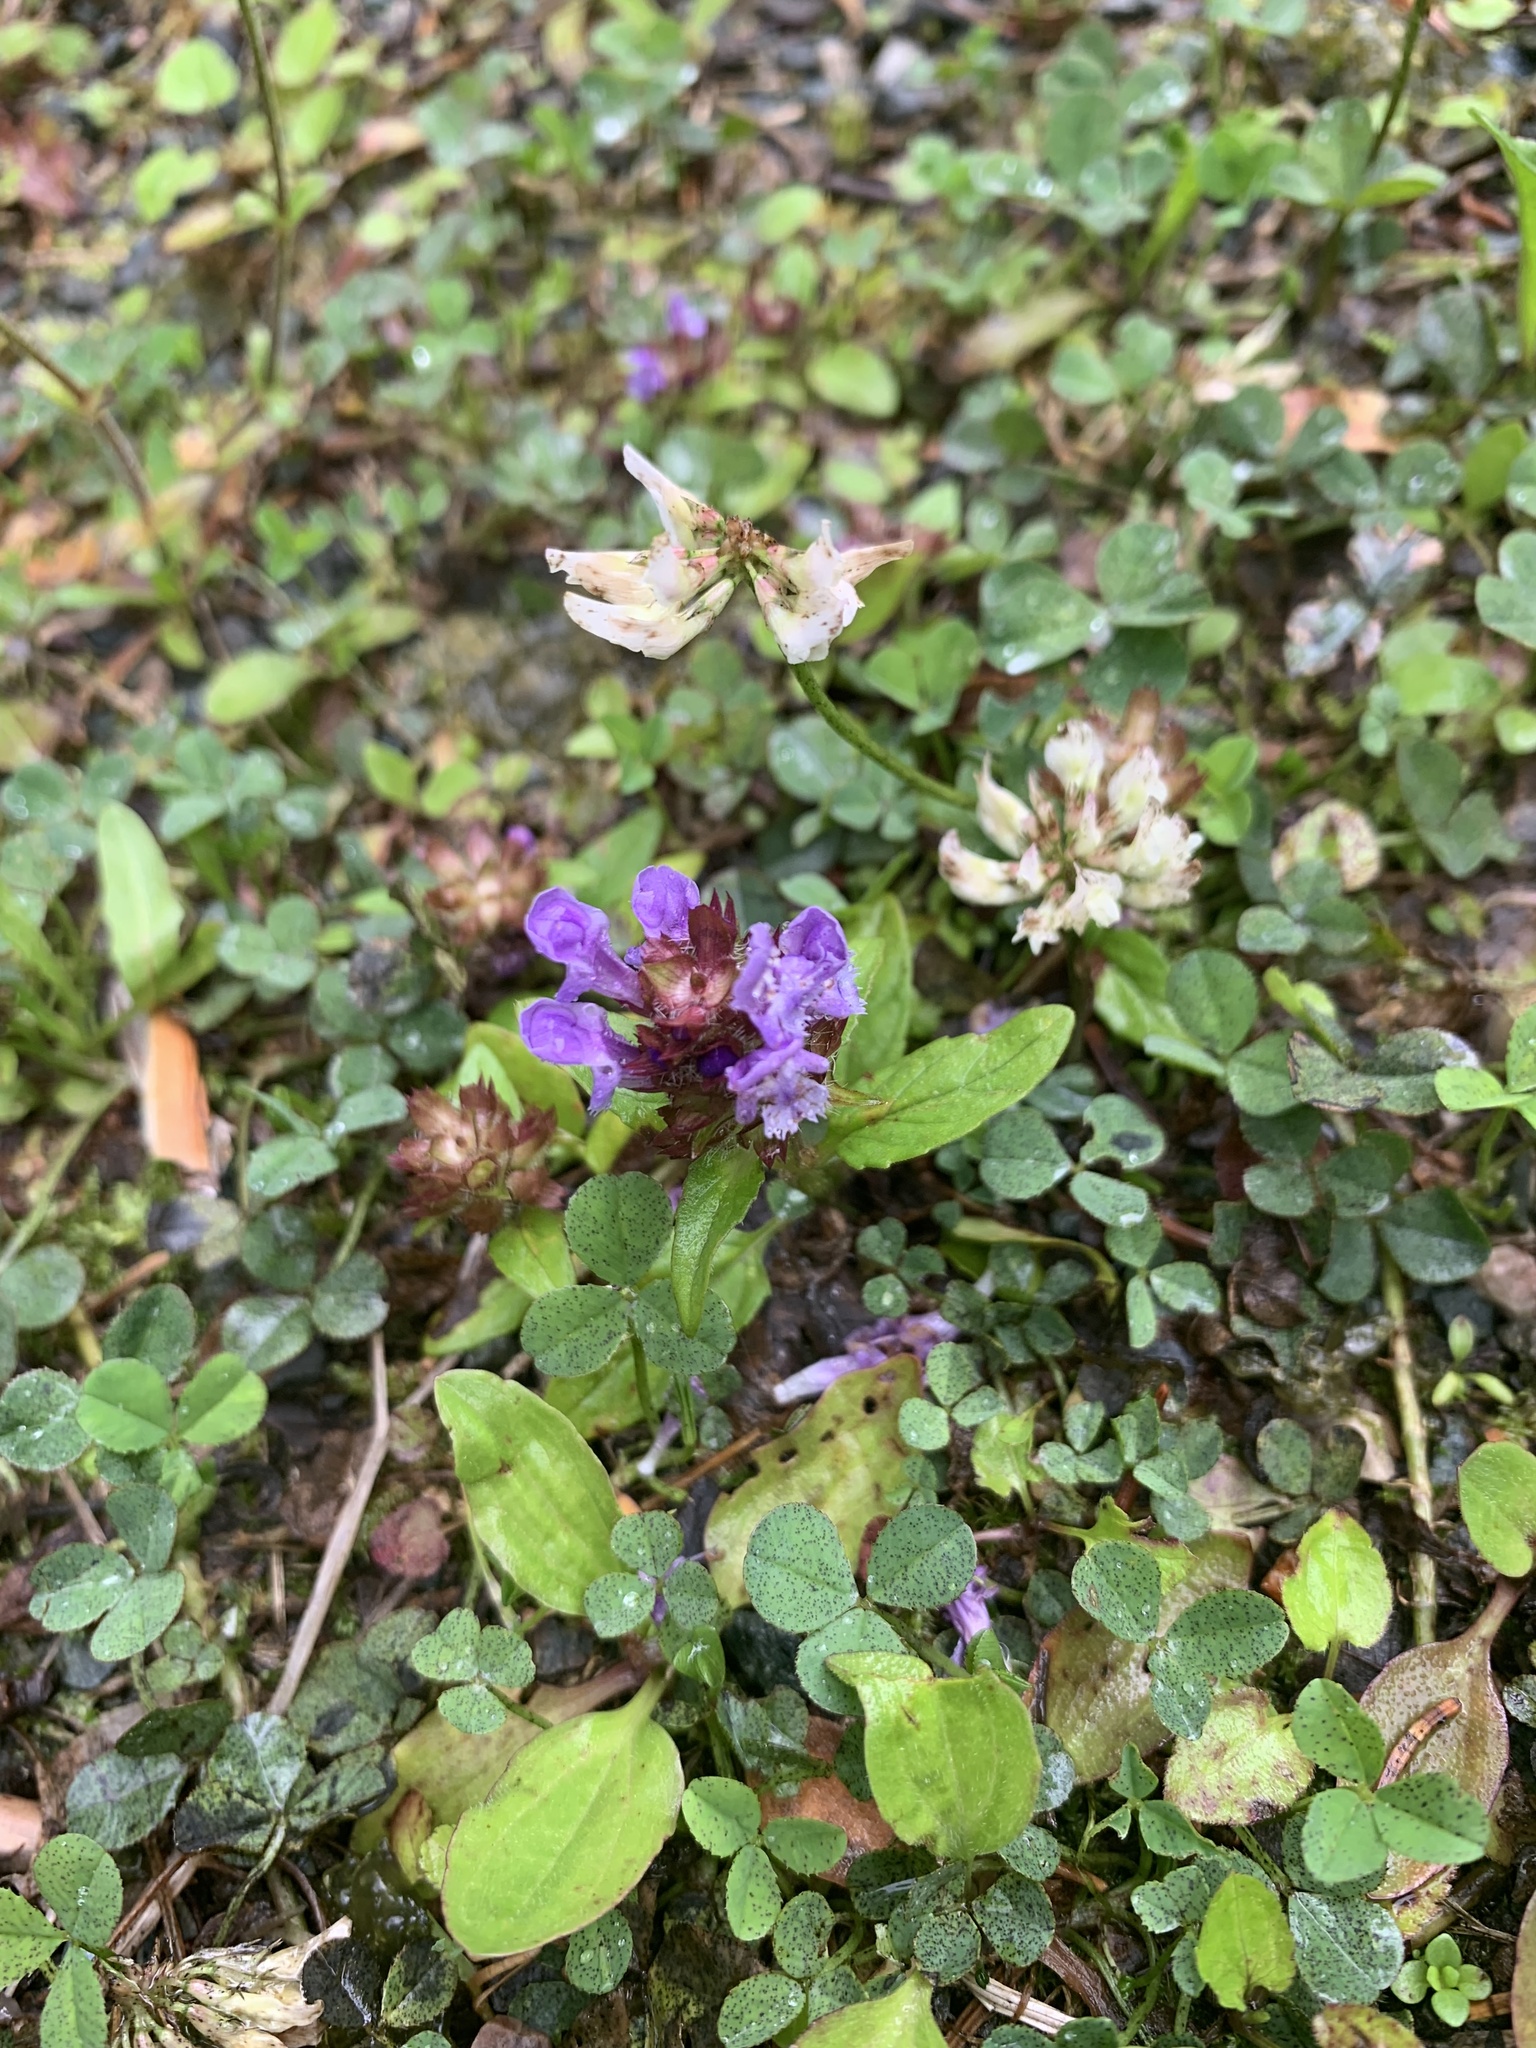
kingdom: Plantae
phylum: Tracheophyta
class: Magnoliopsida
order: Lamiales
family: Lamiaceae
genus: Prunella
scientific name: Prunella vulgaris
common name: Heal-all
